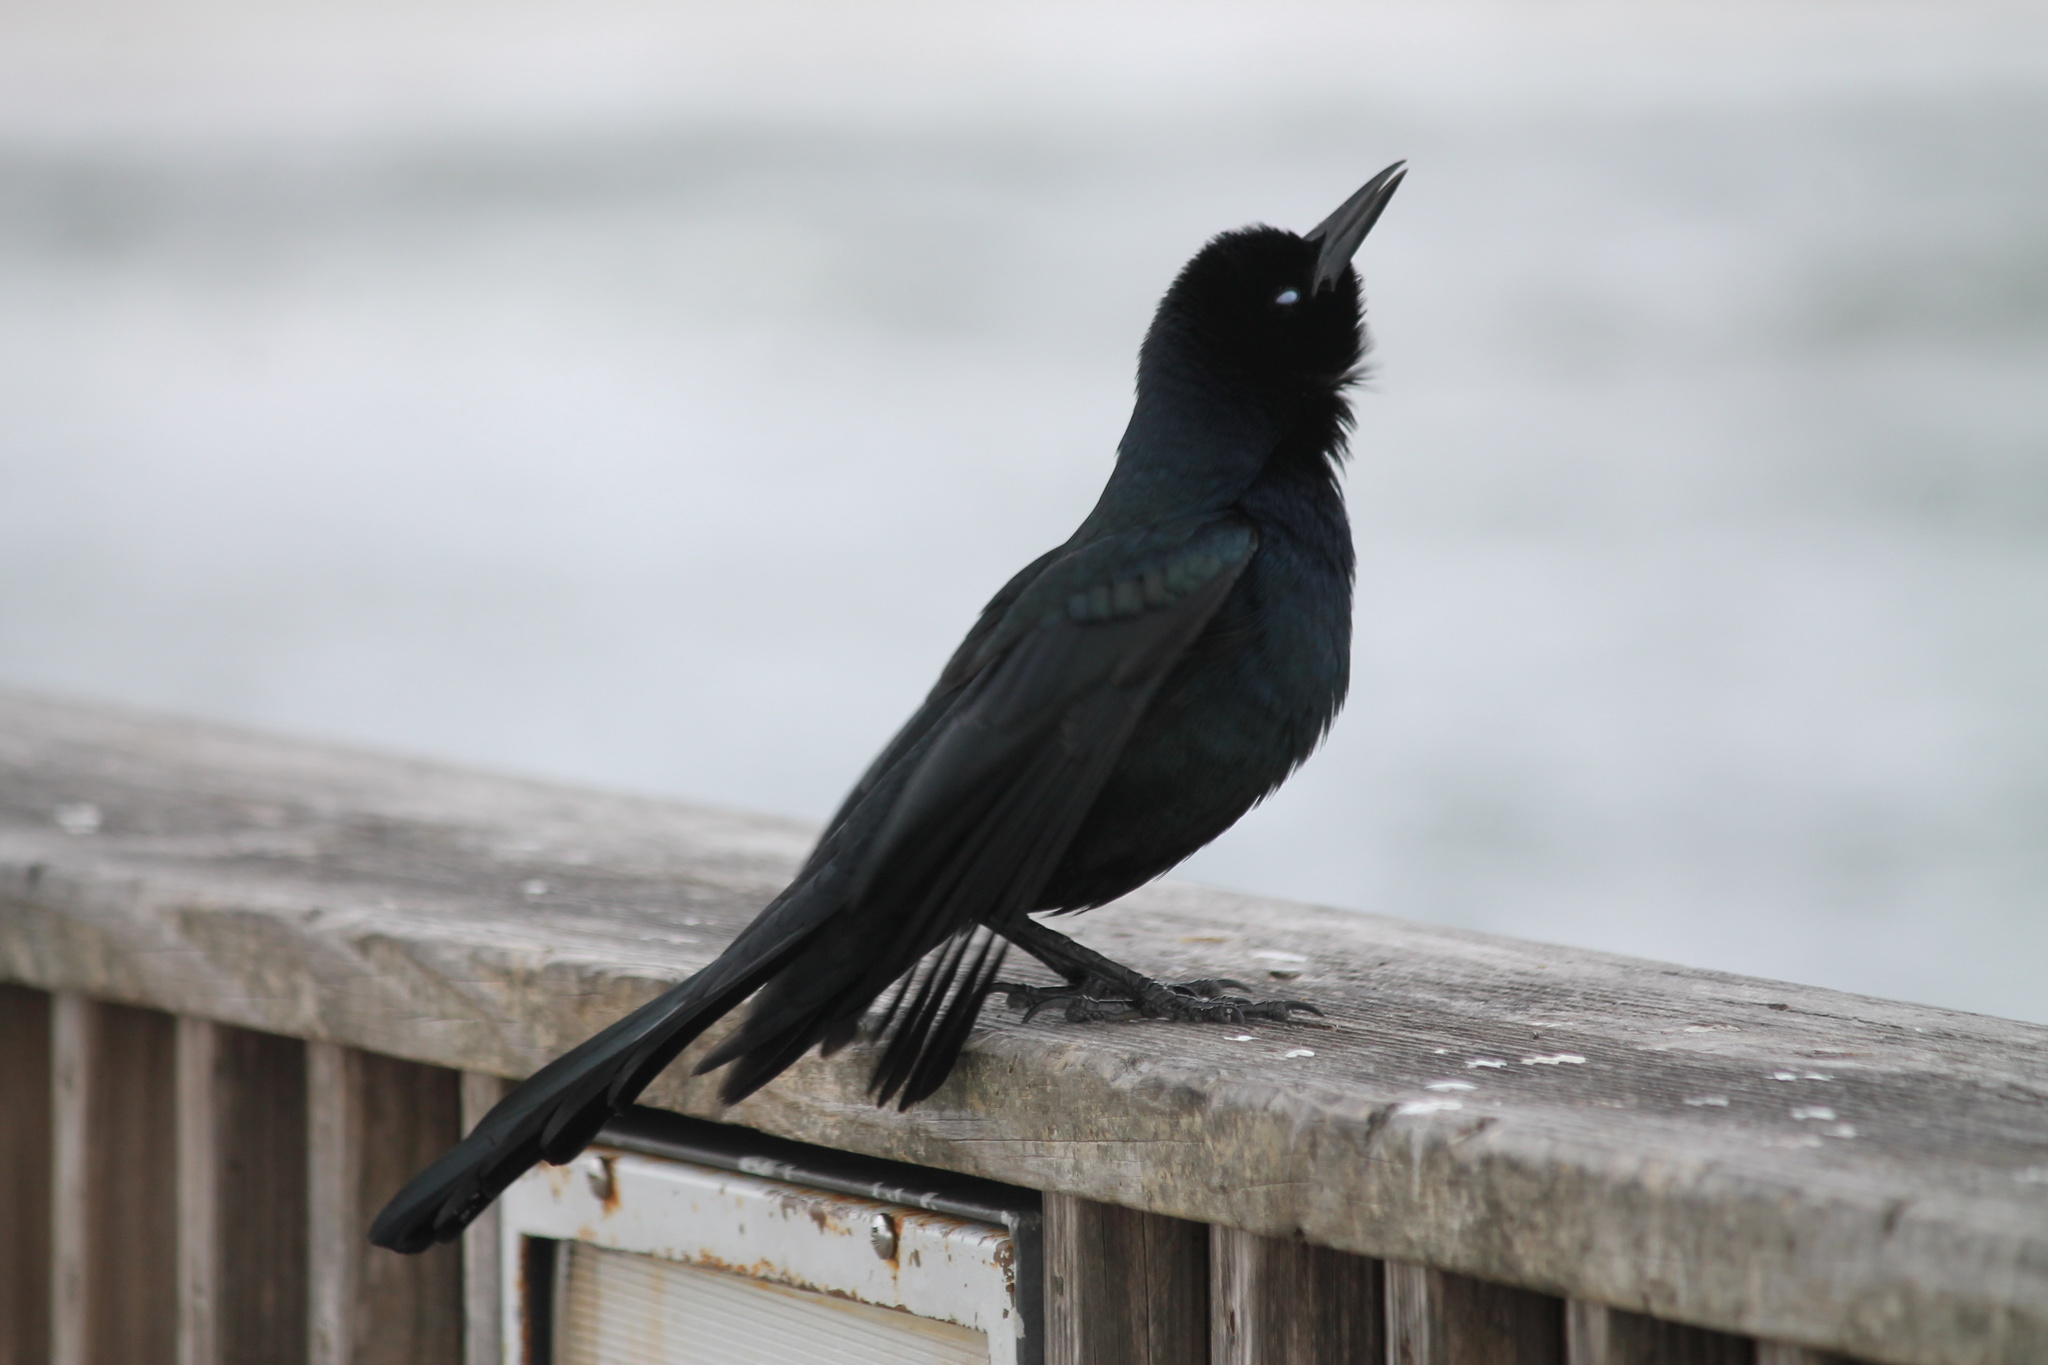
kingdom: Animalia
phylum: Chordata
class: Aves
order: Passeriformes
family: Icteridae
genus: Quiscalus
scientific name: Quiscalus major
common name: Boat-tailed grackle
